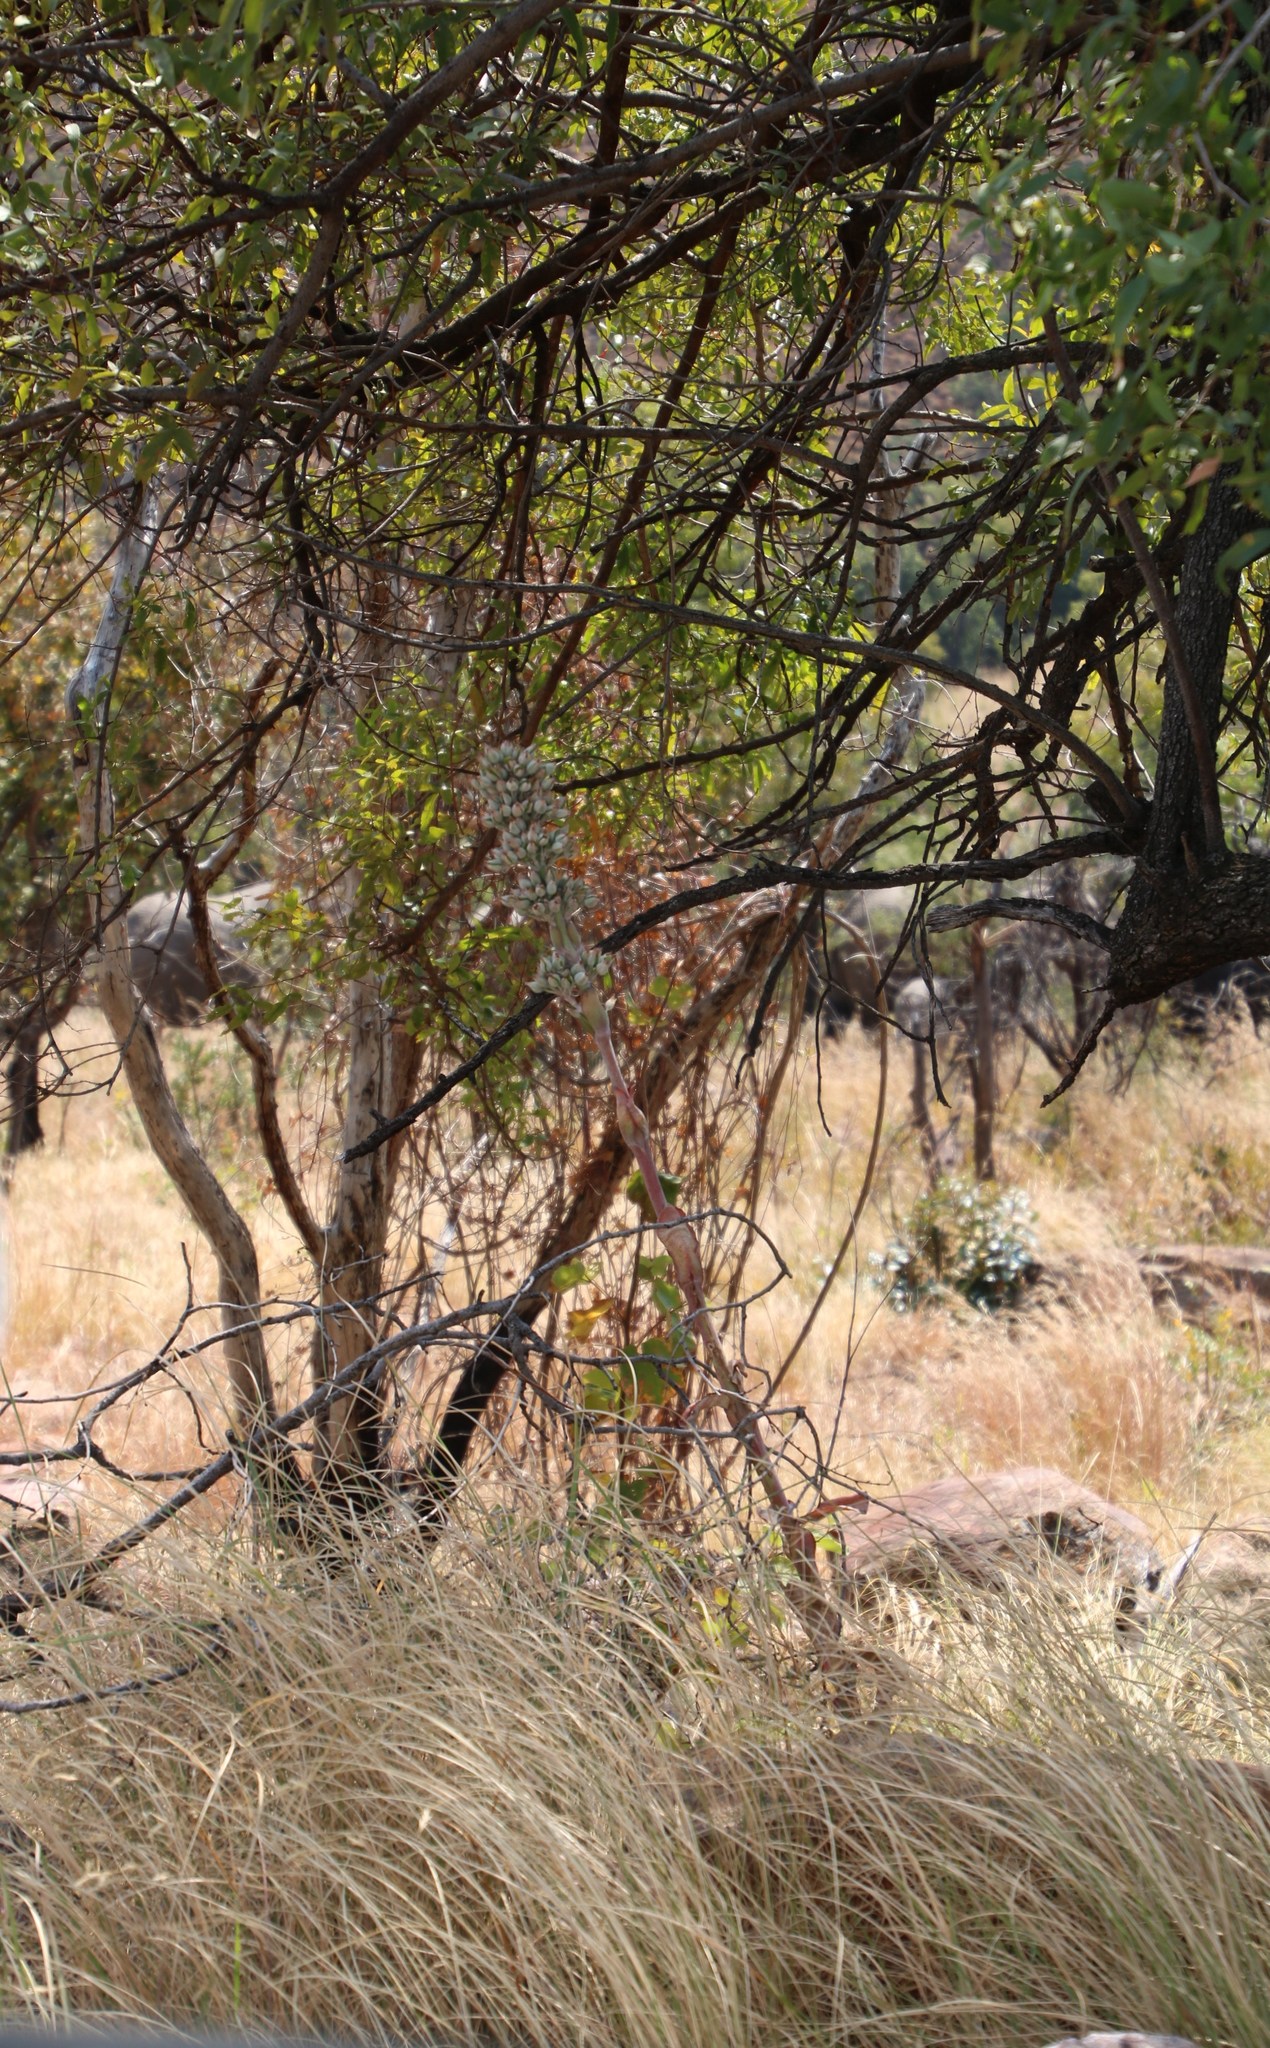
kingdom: Plantae
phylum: Tracheophyta
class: Magnoliopsida
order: Saxifragales
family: Crassulaceae
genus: Kalanchoe
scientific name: Kalanchoe thyrsiflora
